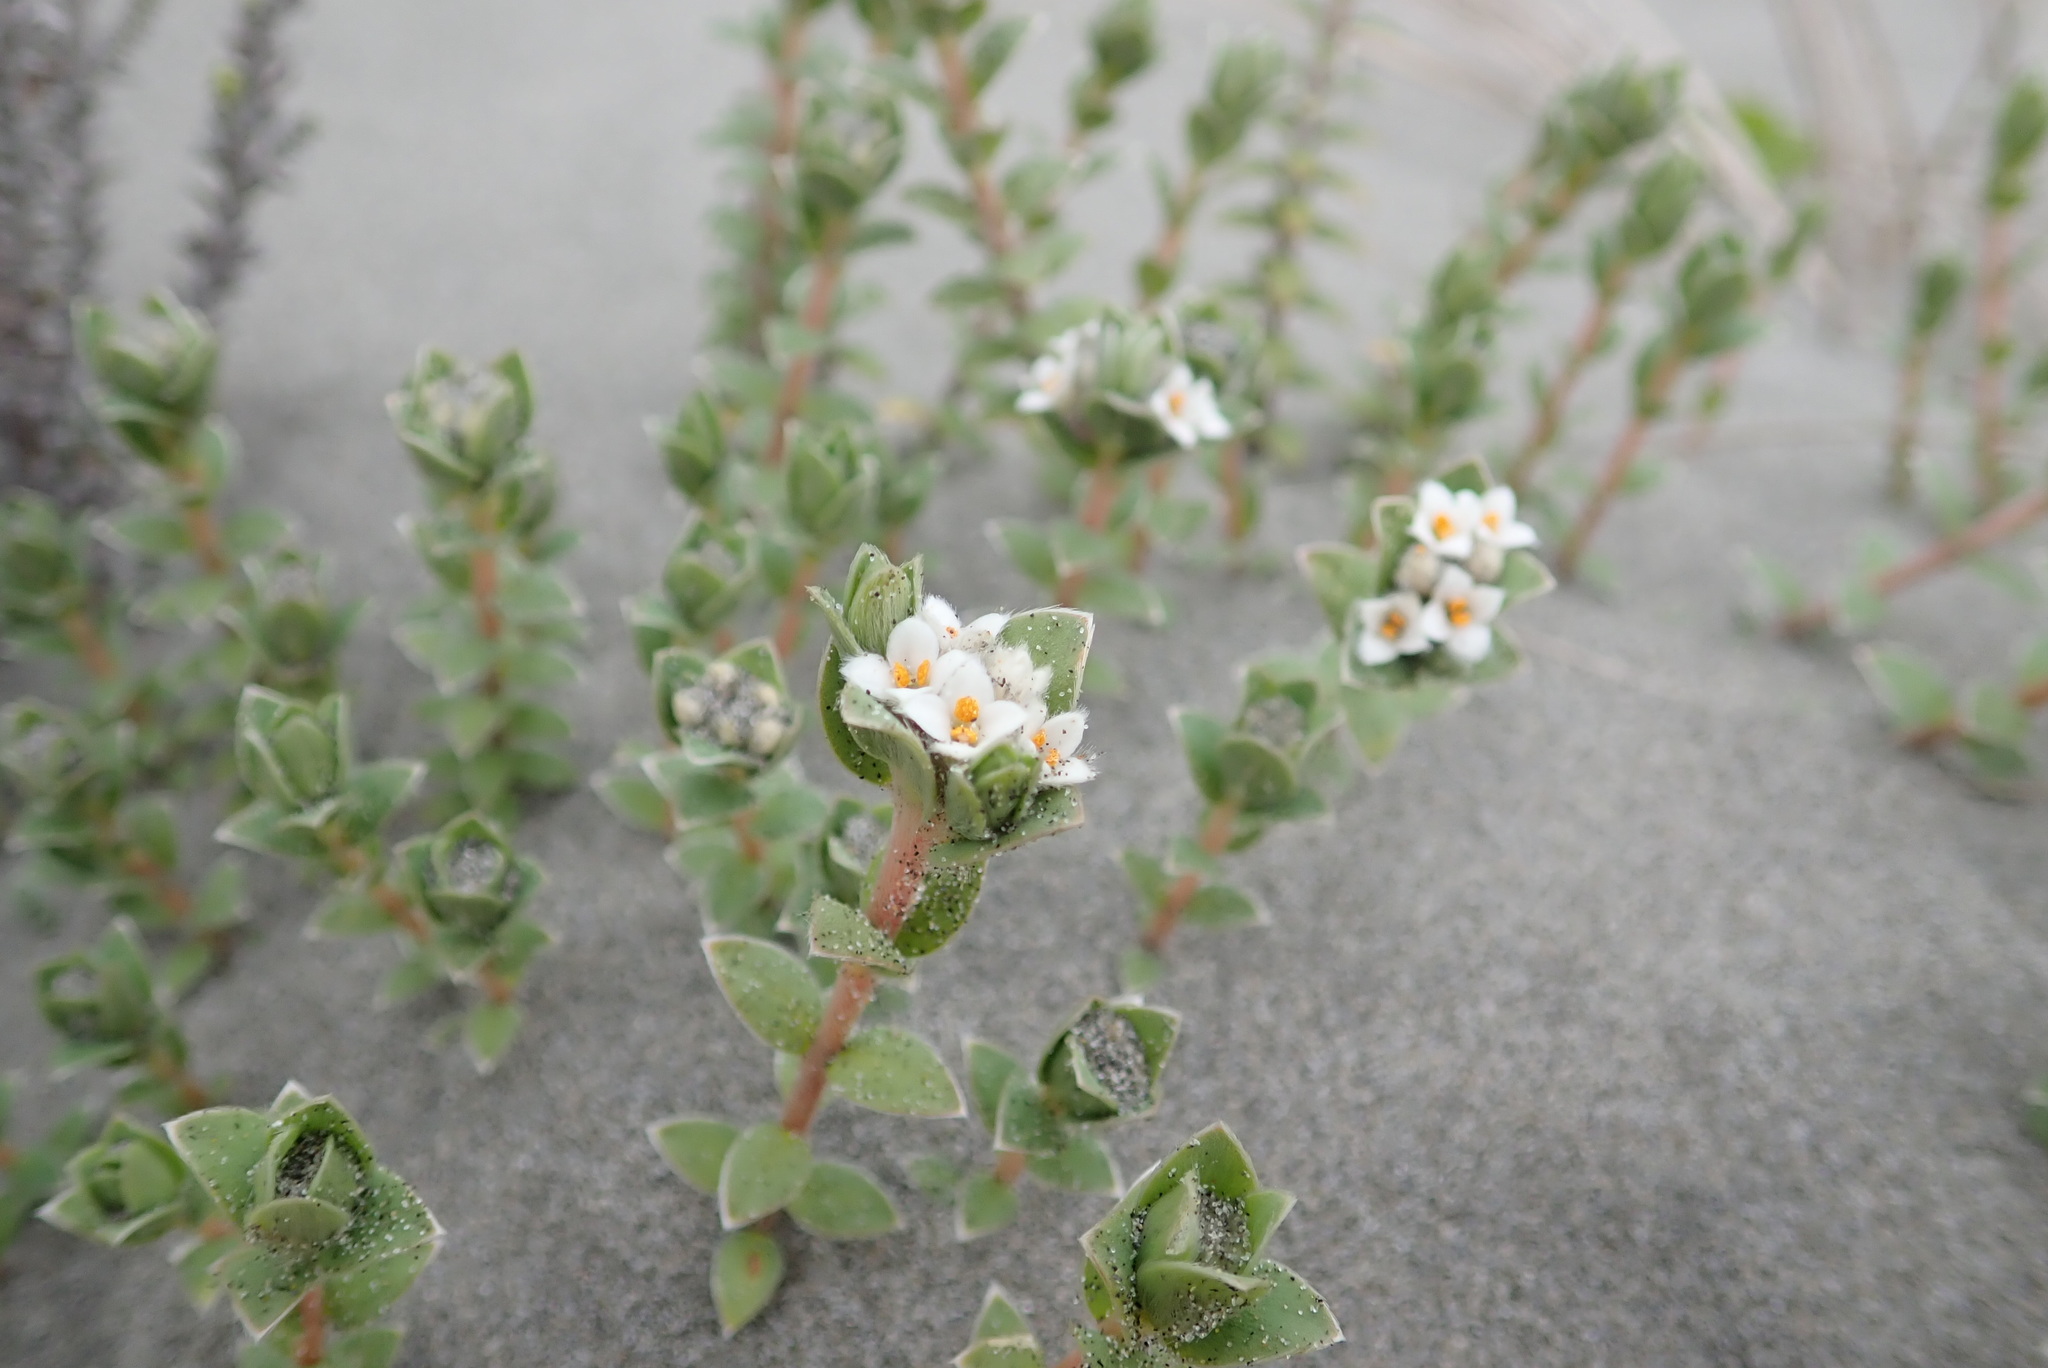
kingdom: Plantae
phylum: Tracheophyta
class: Magnoliopsida
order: Malvales
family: Thymelaeaceae
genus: Pimelea
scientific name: Pimelea villosa
